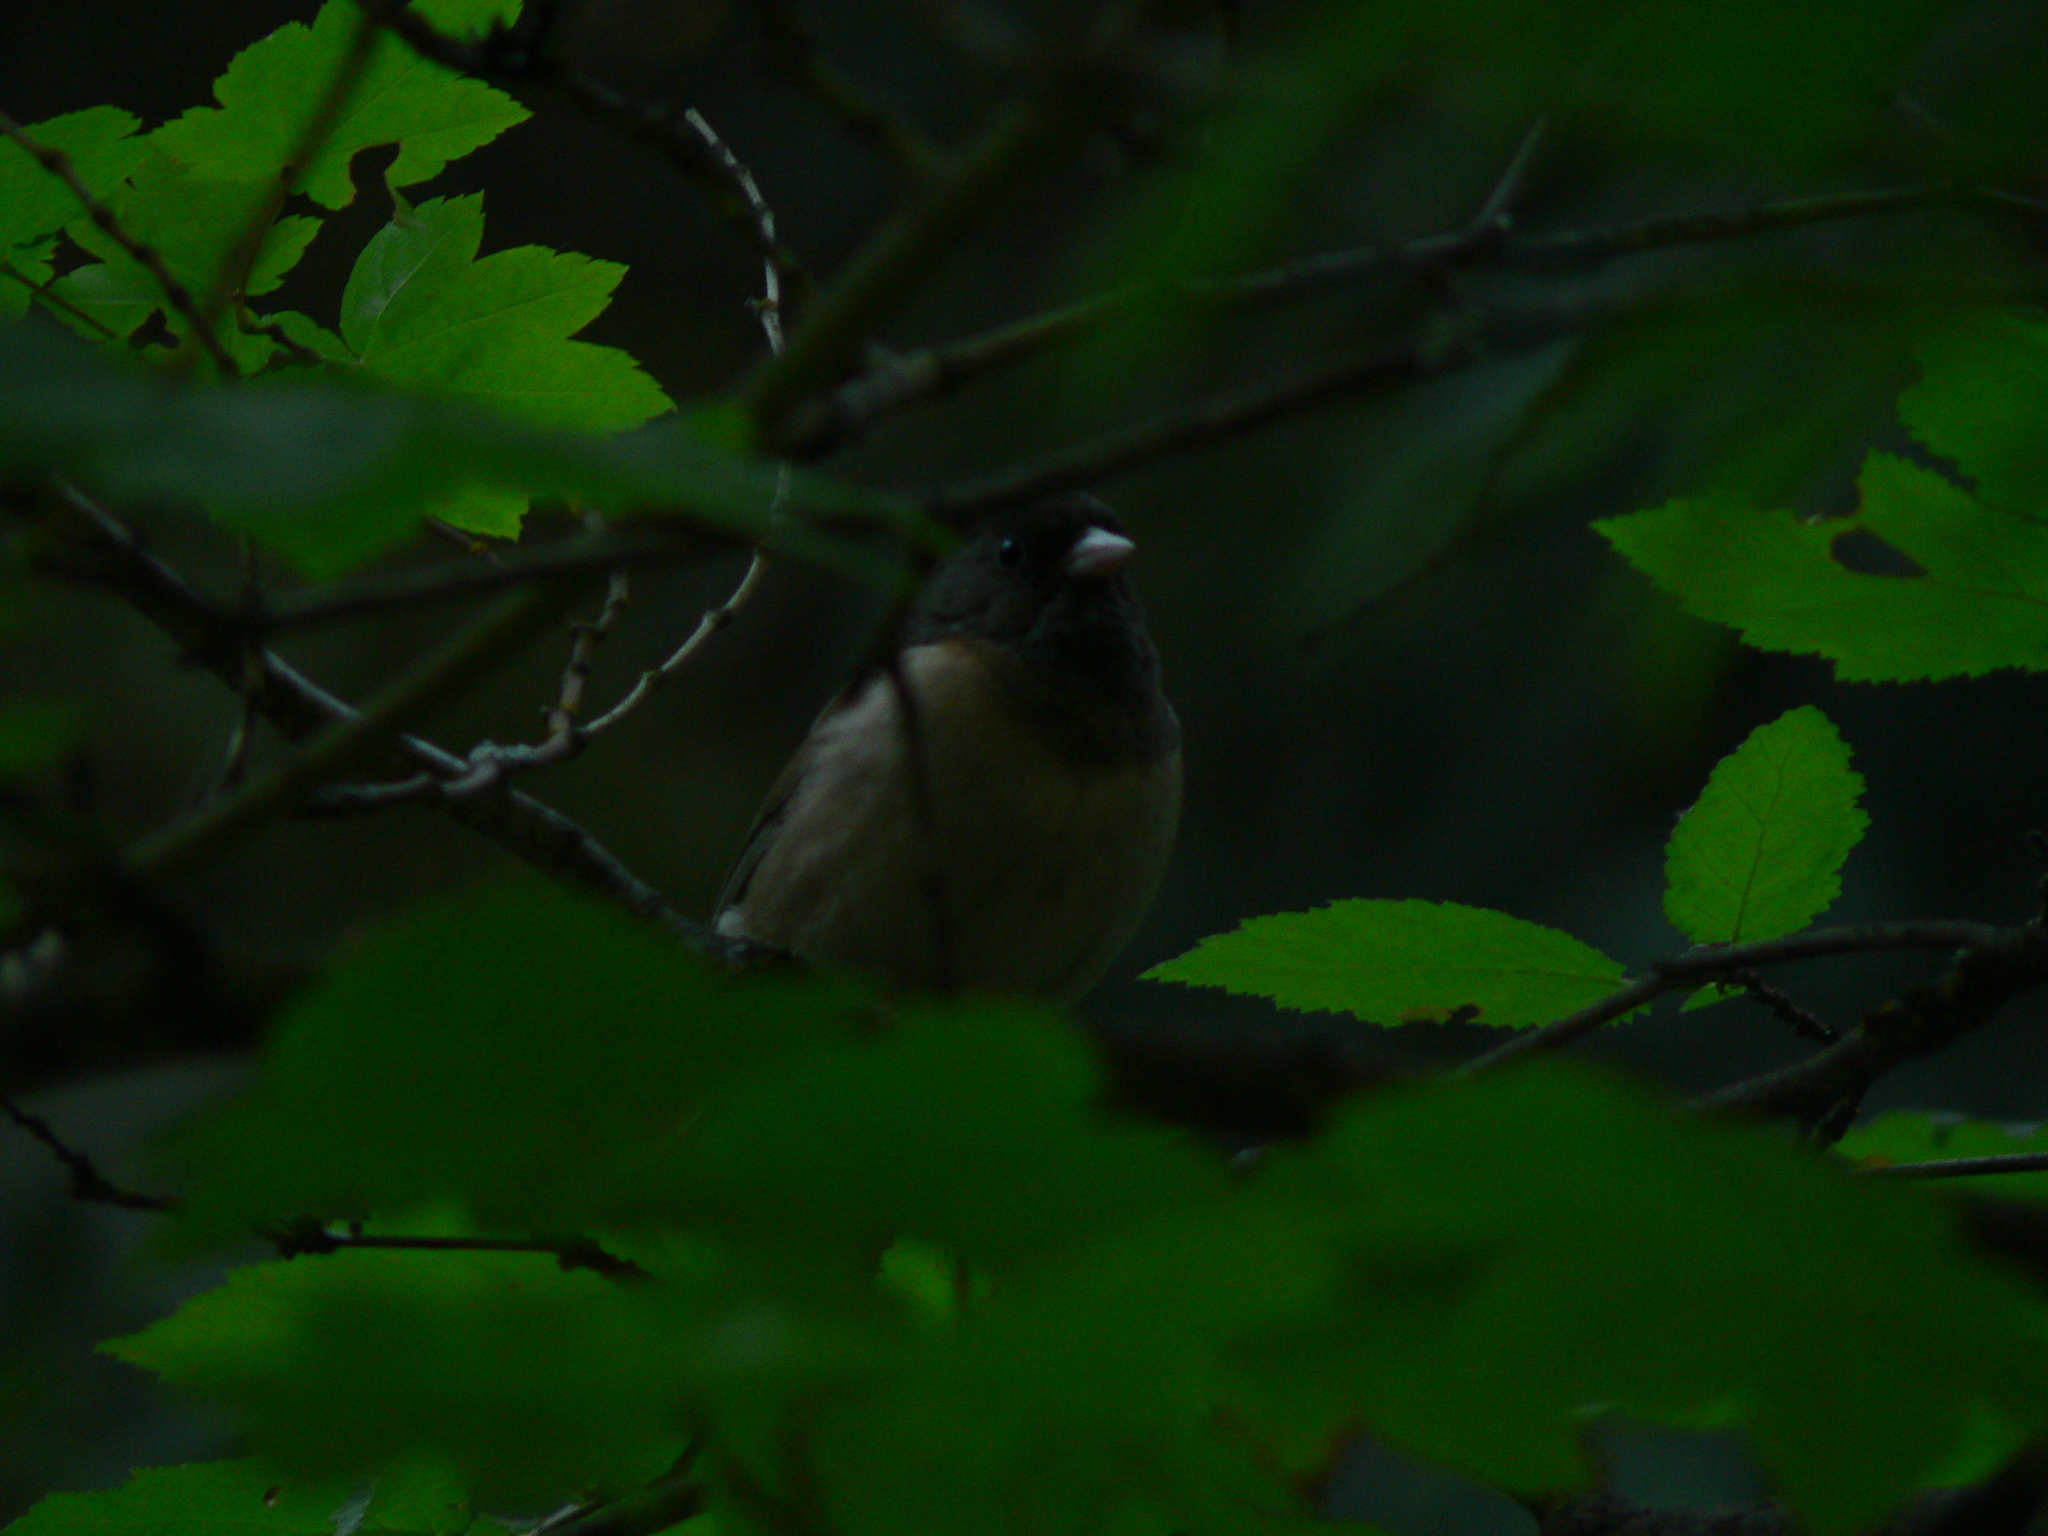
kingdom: Animalia
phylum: Chordata
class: Aves
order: Passeriformes
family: Passerellidae
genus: Junco
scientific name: Junco hyemalis
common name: Dark-eyed junco
